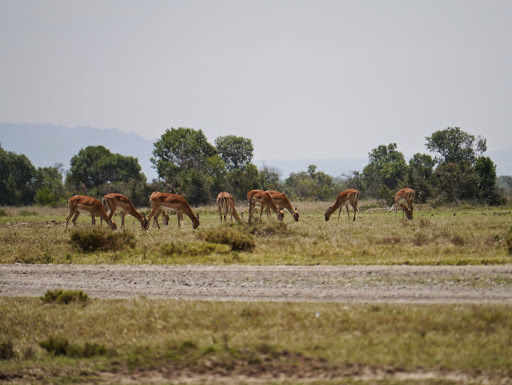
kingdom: Animalia
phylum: Chordata
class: Mammalia
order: Artiodactyla
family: Bovidae
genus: Aepyceros
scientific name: Aepyceros melampus
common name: Impala
